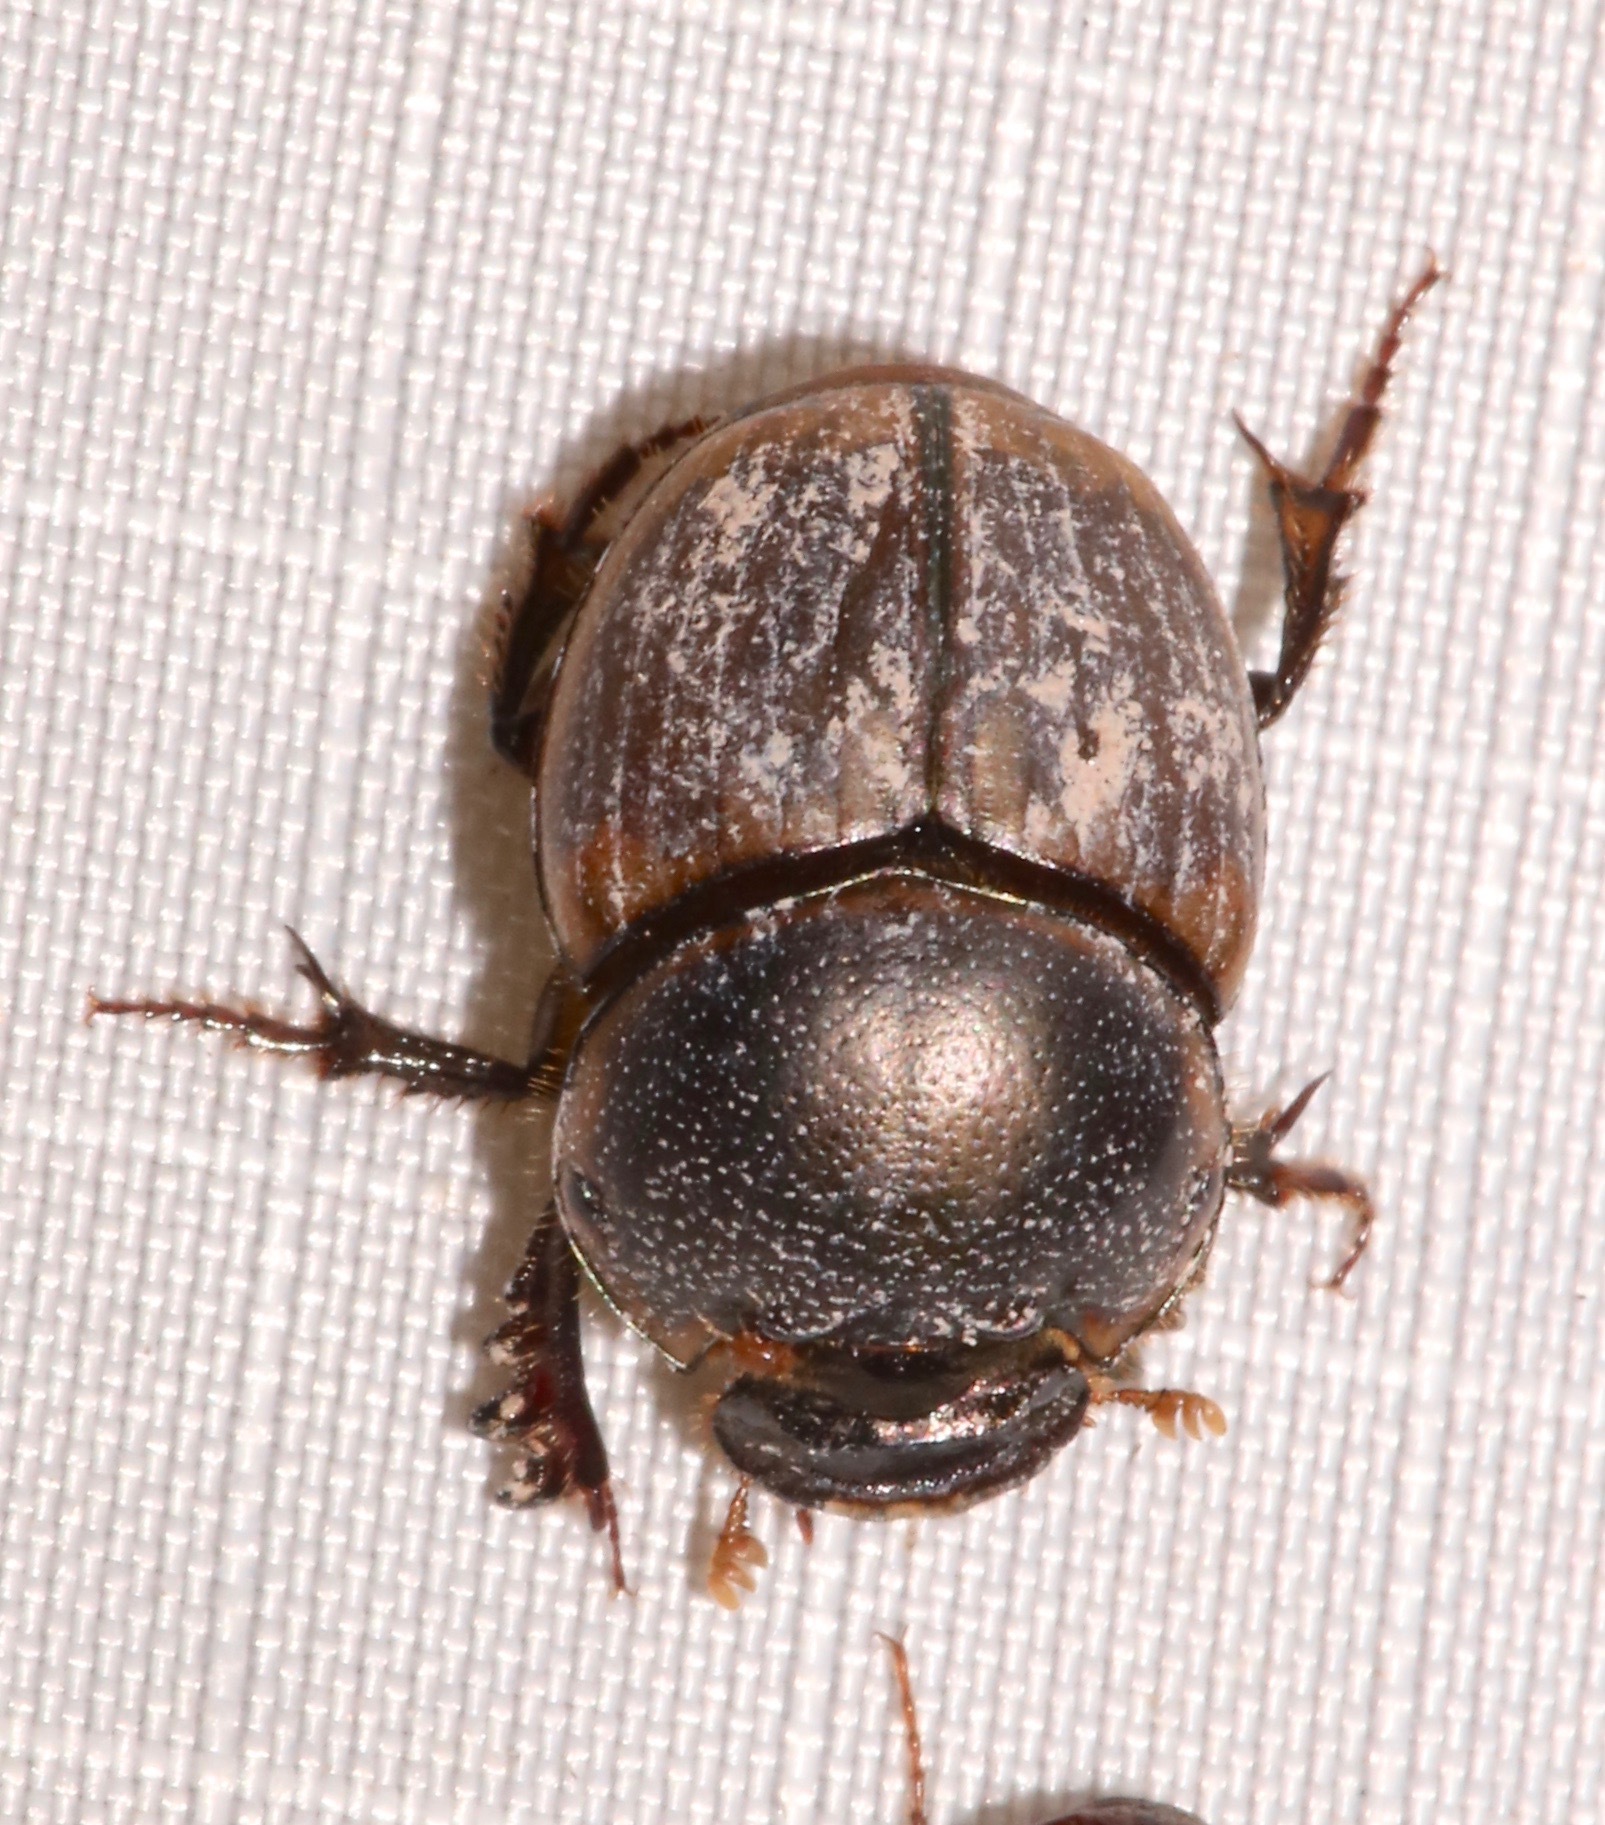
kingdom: Animalia
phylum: Arthropoda
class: Insecta
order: Coleoptera
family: Scarabaeidae
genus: Digitonthophagus
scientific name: Digitonthophagus gazella
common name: Brown dung beetle
